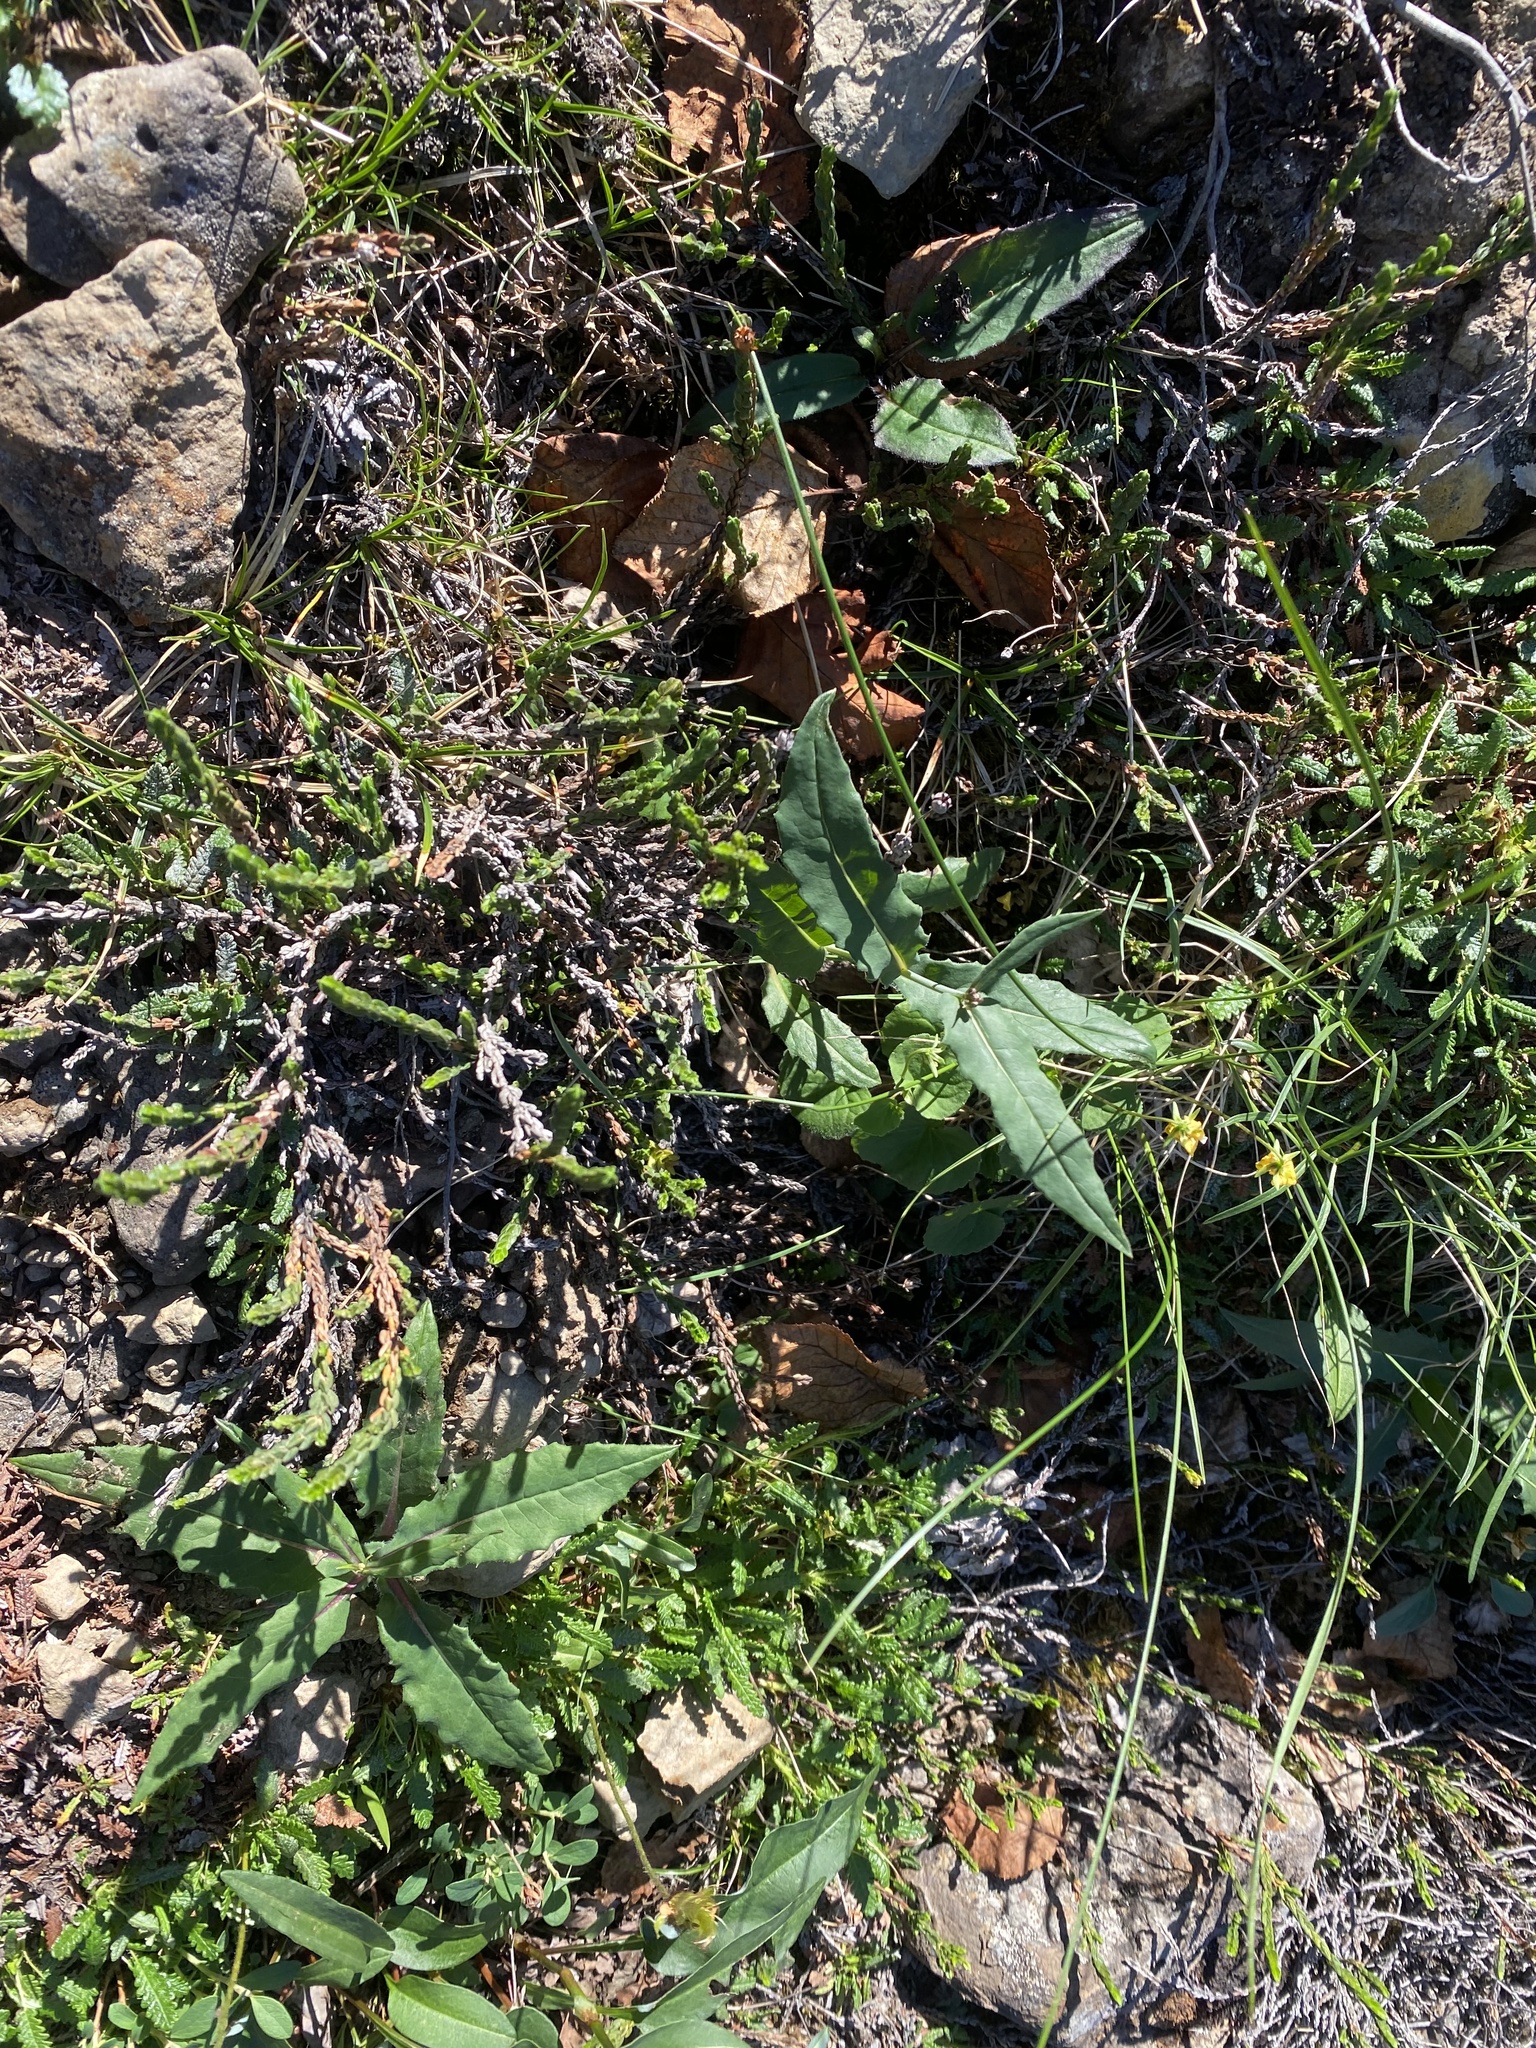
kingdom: Plantae
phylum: Tracheophyta
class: Magnoliopsida
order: Ericales
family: Ericaceae
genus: Cassiope
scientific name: Cassiope tetragona
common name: Arctic bell heather
